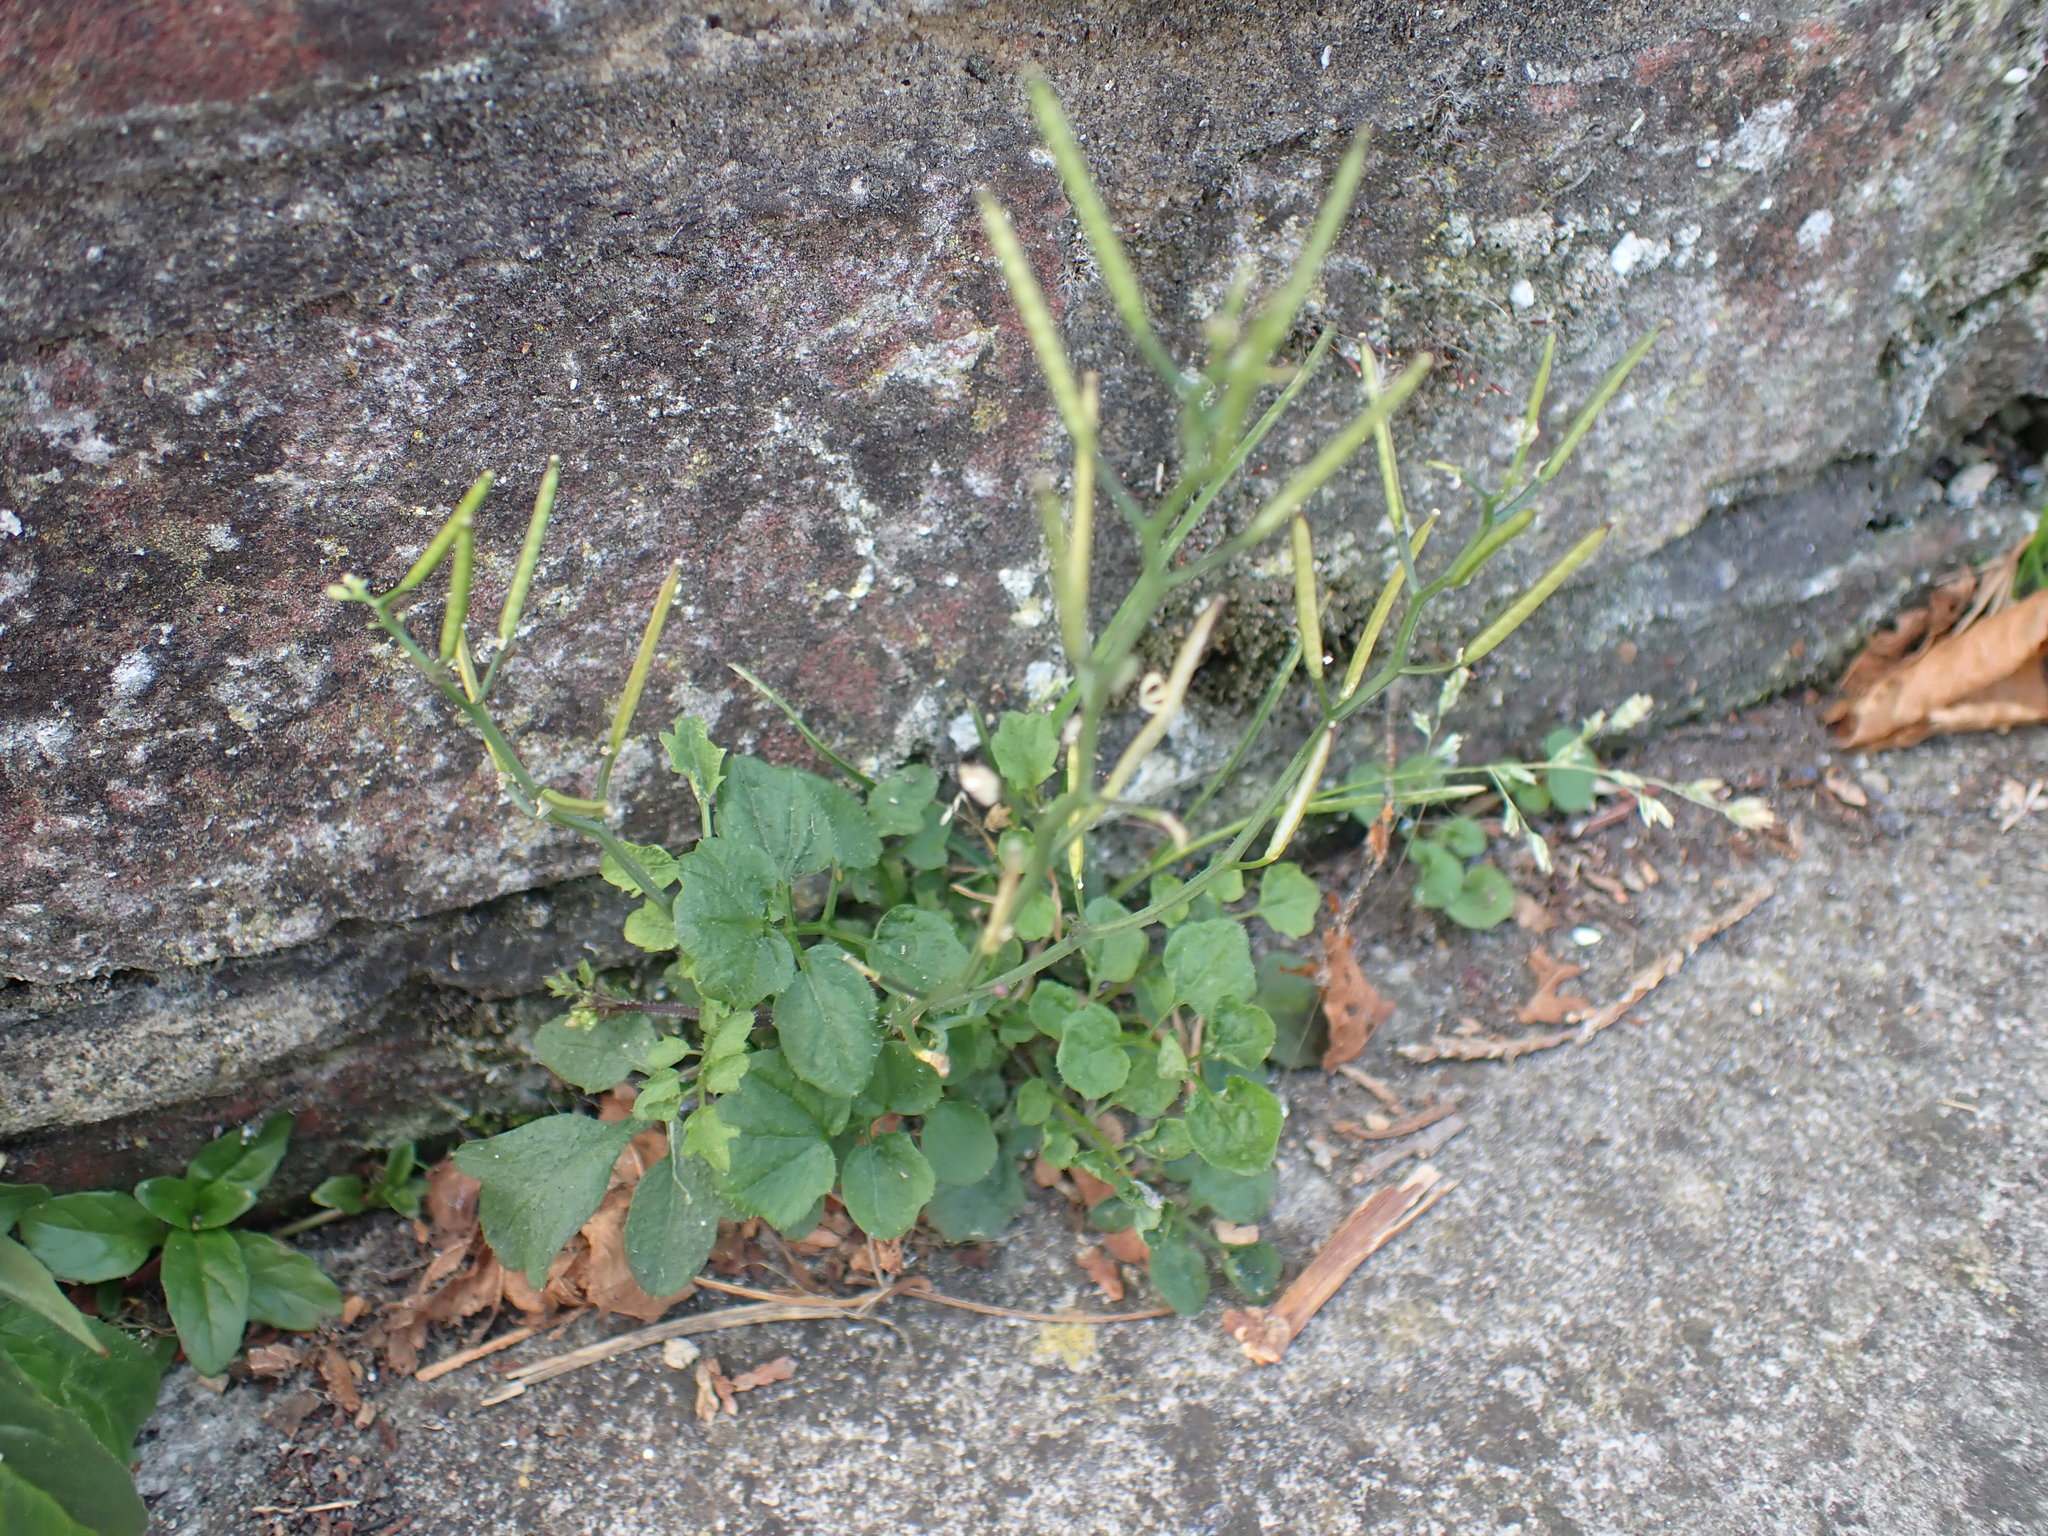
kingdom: Plantae
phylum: Tracheophyta
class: Magnoliopsida
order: Brassicales
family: Brassicaceae
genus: Cardamine
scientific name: Cardamine flexuosa
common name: Woodland bittercress
